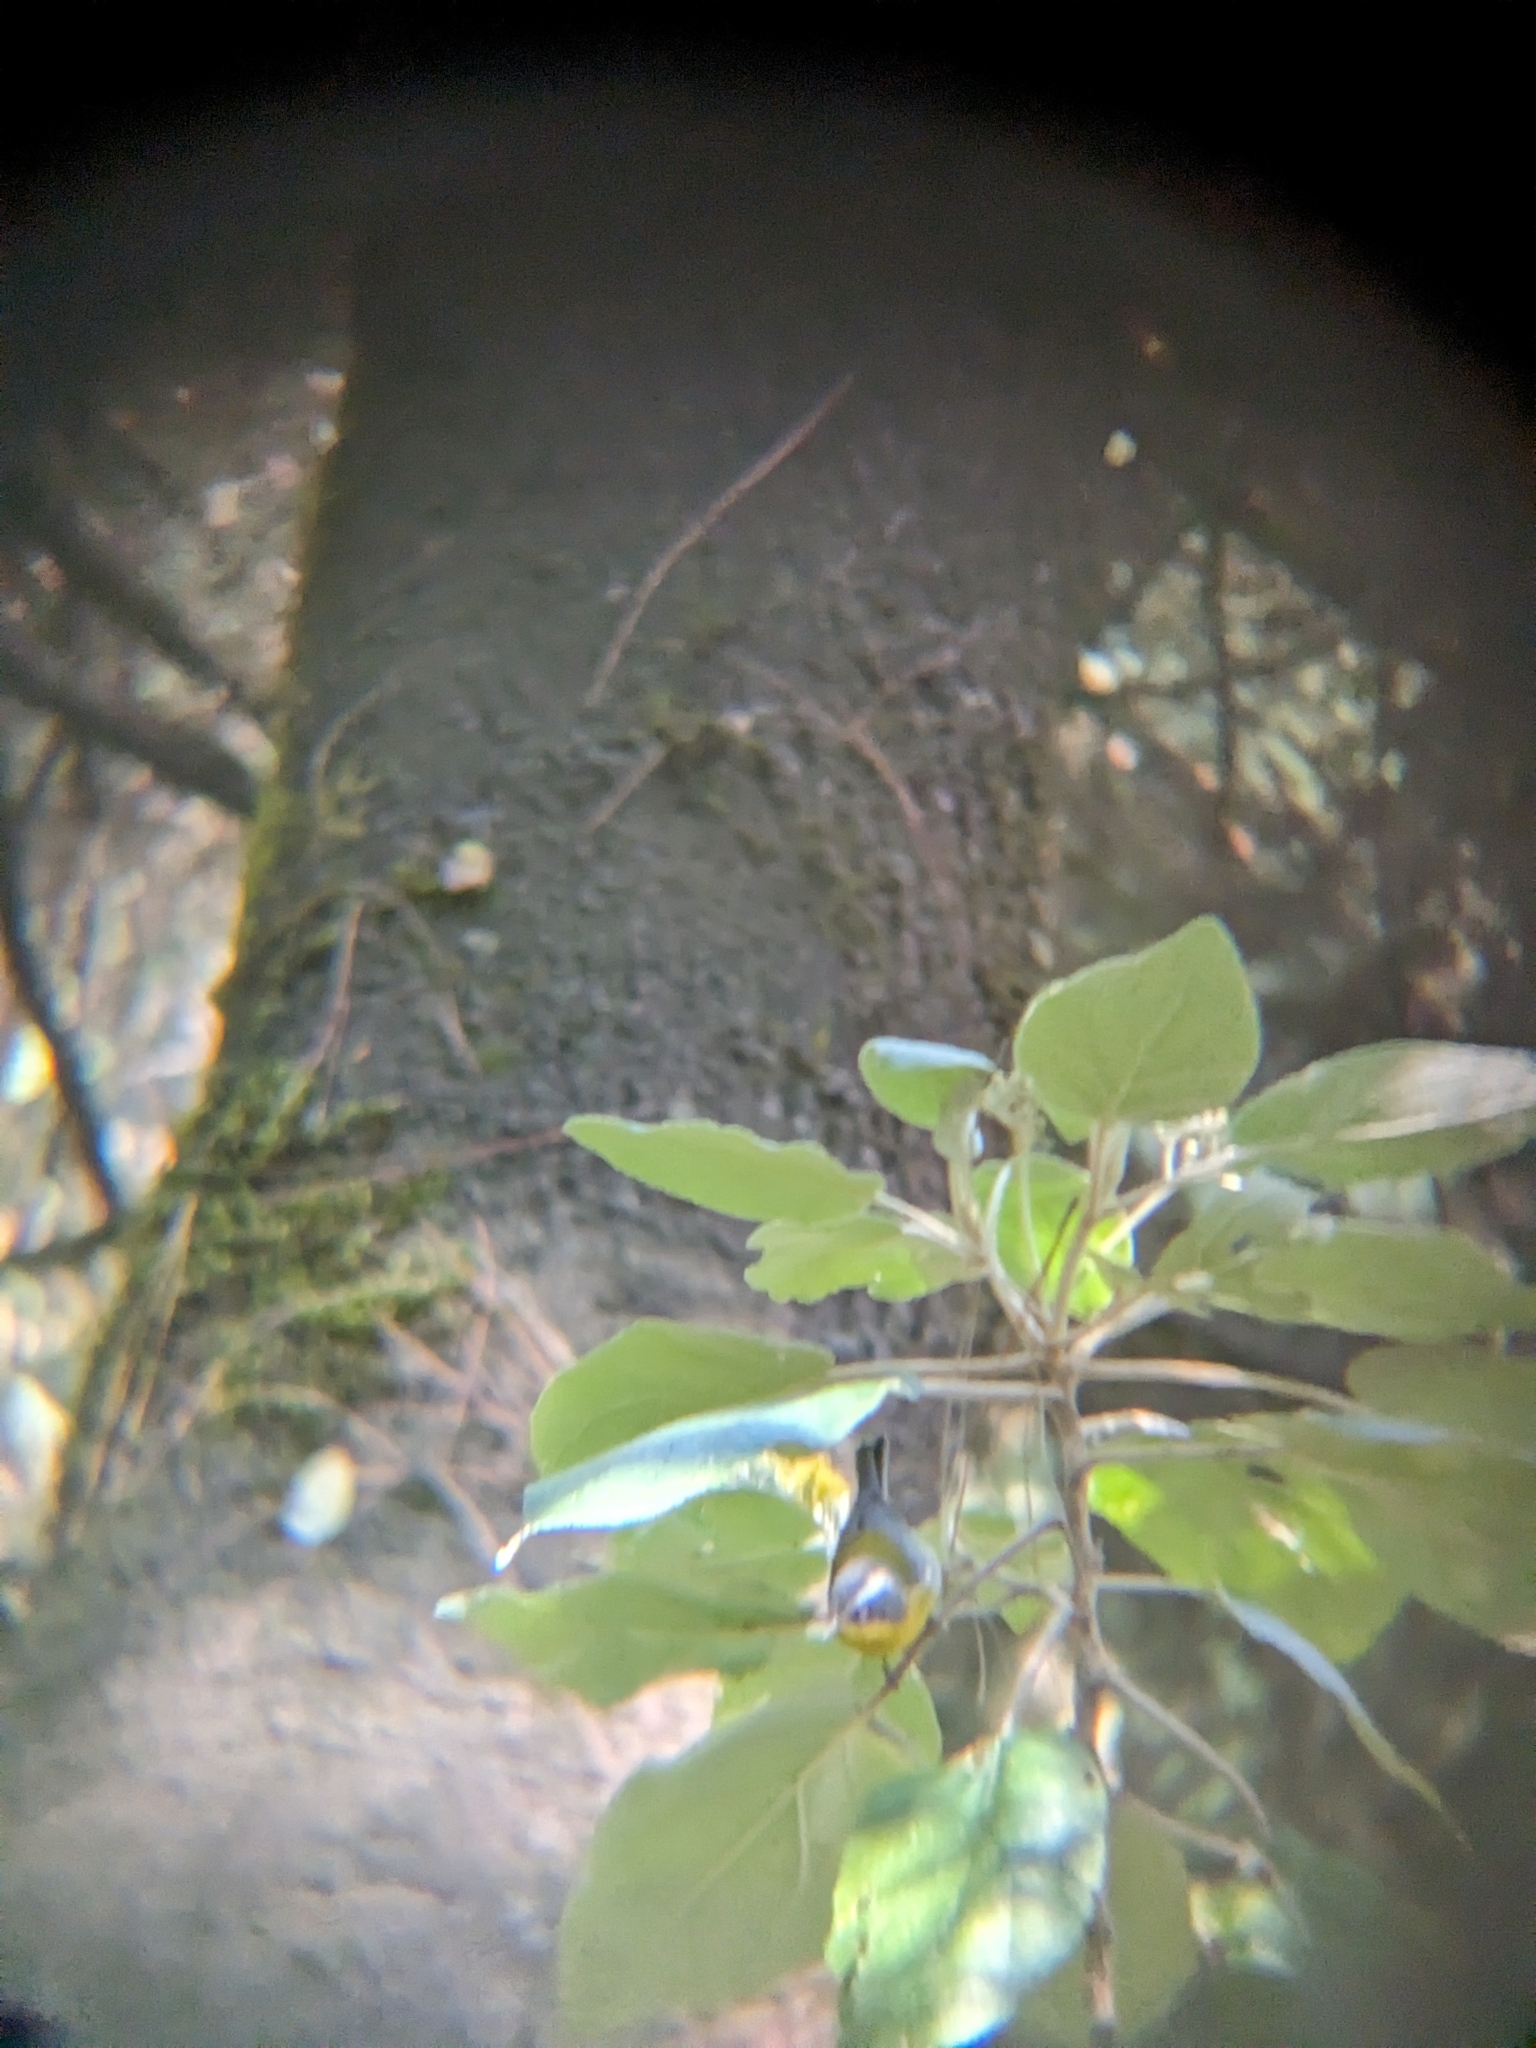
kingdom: Animalia
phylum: Chordata
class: Aves
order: Passeriformes
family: Parulidae
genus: Oreothlypis
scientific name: Oreothlypis superciliosa
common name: Crescent-chested warbler
